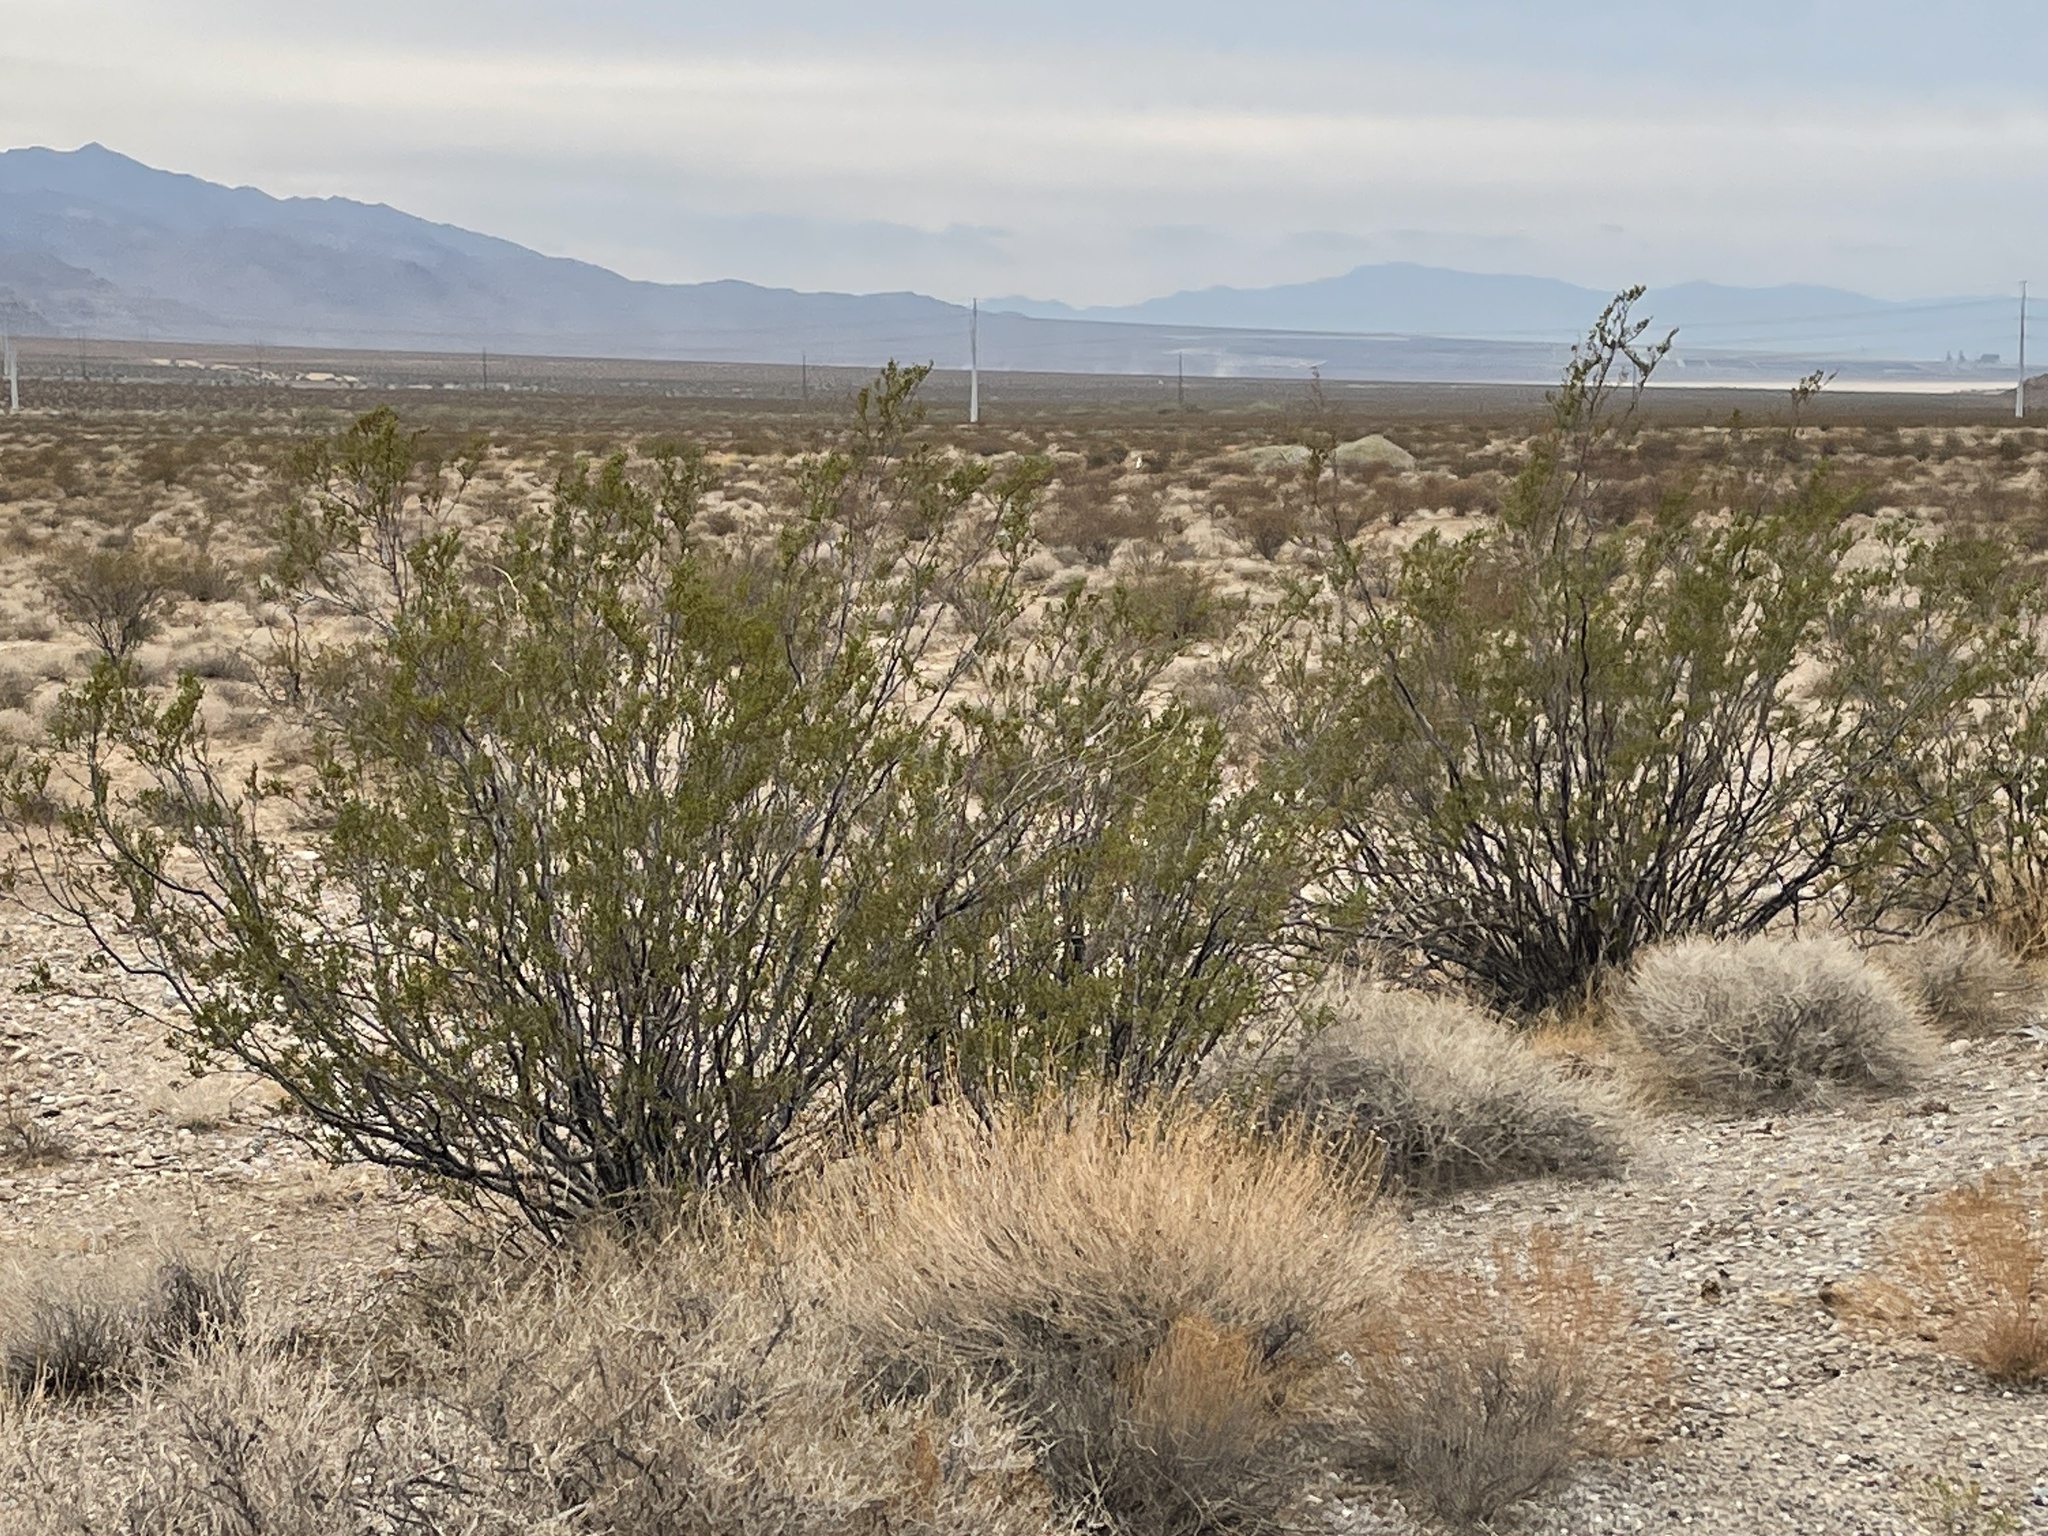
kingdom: Plantae
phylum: Tracheophyta
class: Magnoliopsida
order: Zygophyllales
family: Zygophyllaceae
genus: Larrea
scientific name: Larrea tridentata
